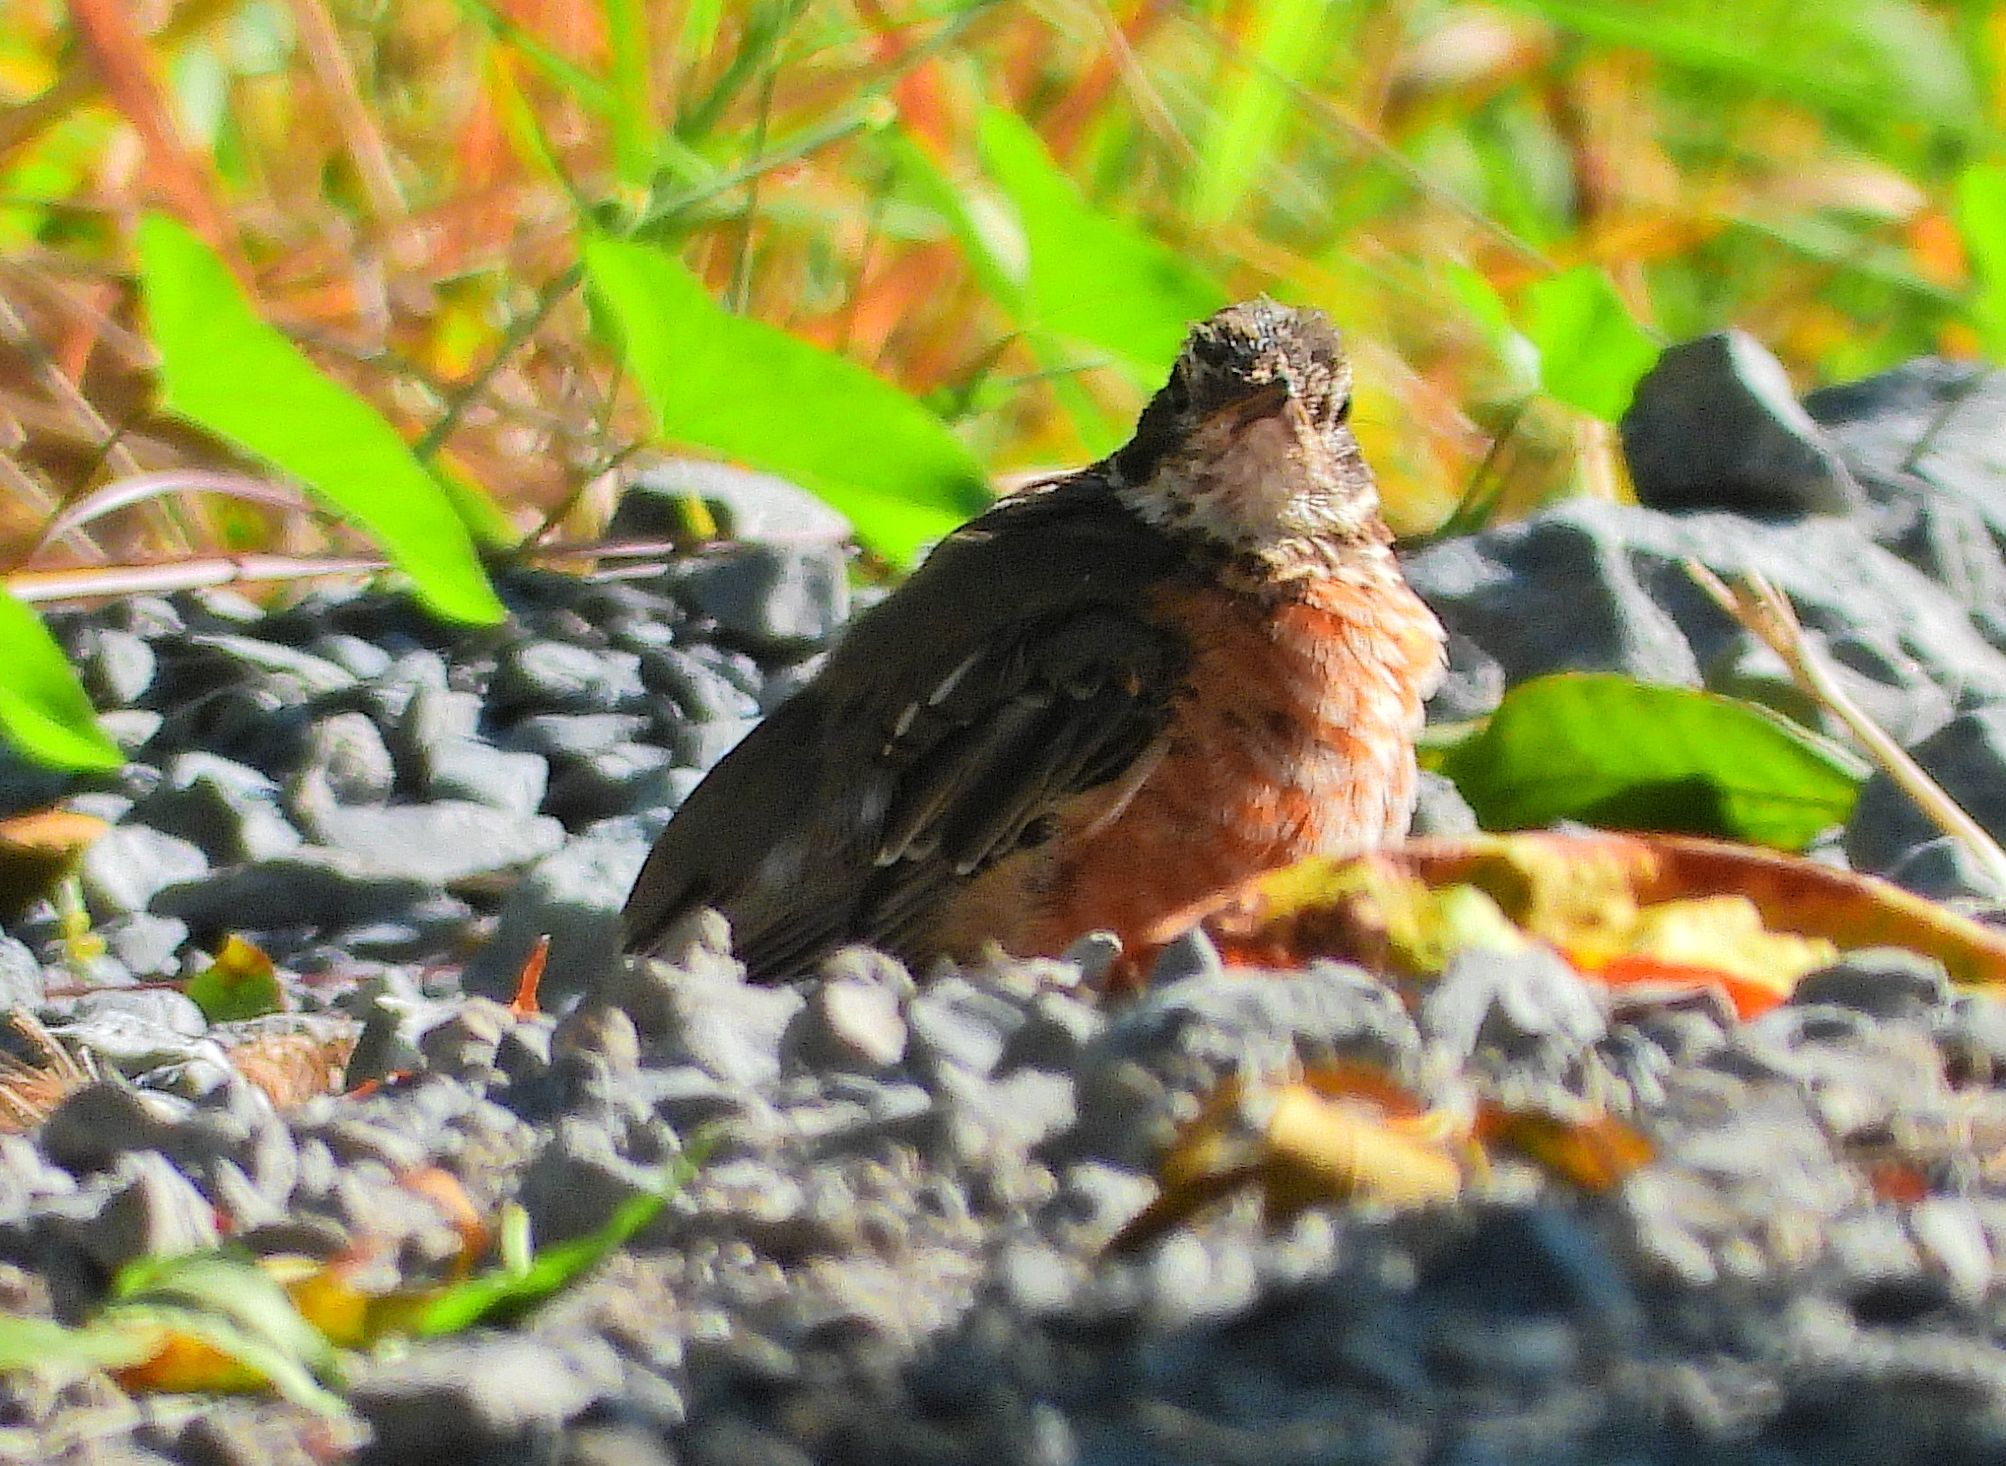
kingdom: Animalia
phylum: Chordata
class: Aves
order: Passeriformes
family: Turdidae
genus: Turdus
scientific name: Turdus migratorius
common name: American robin
